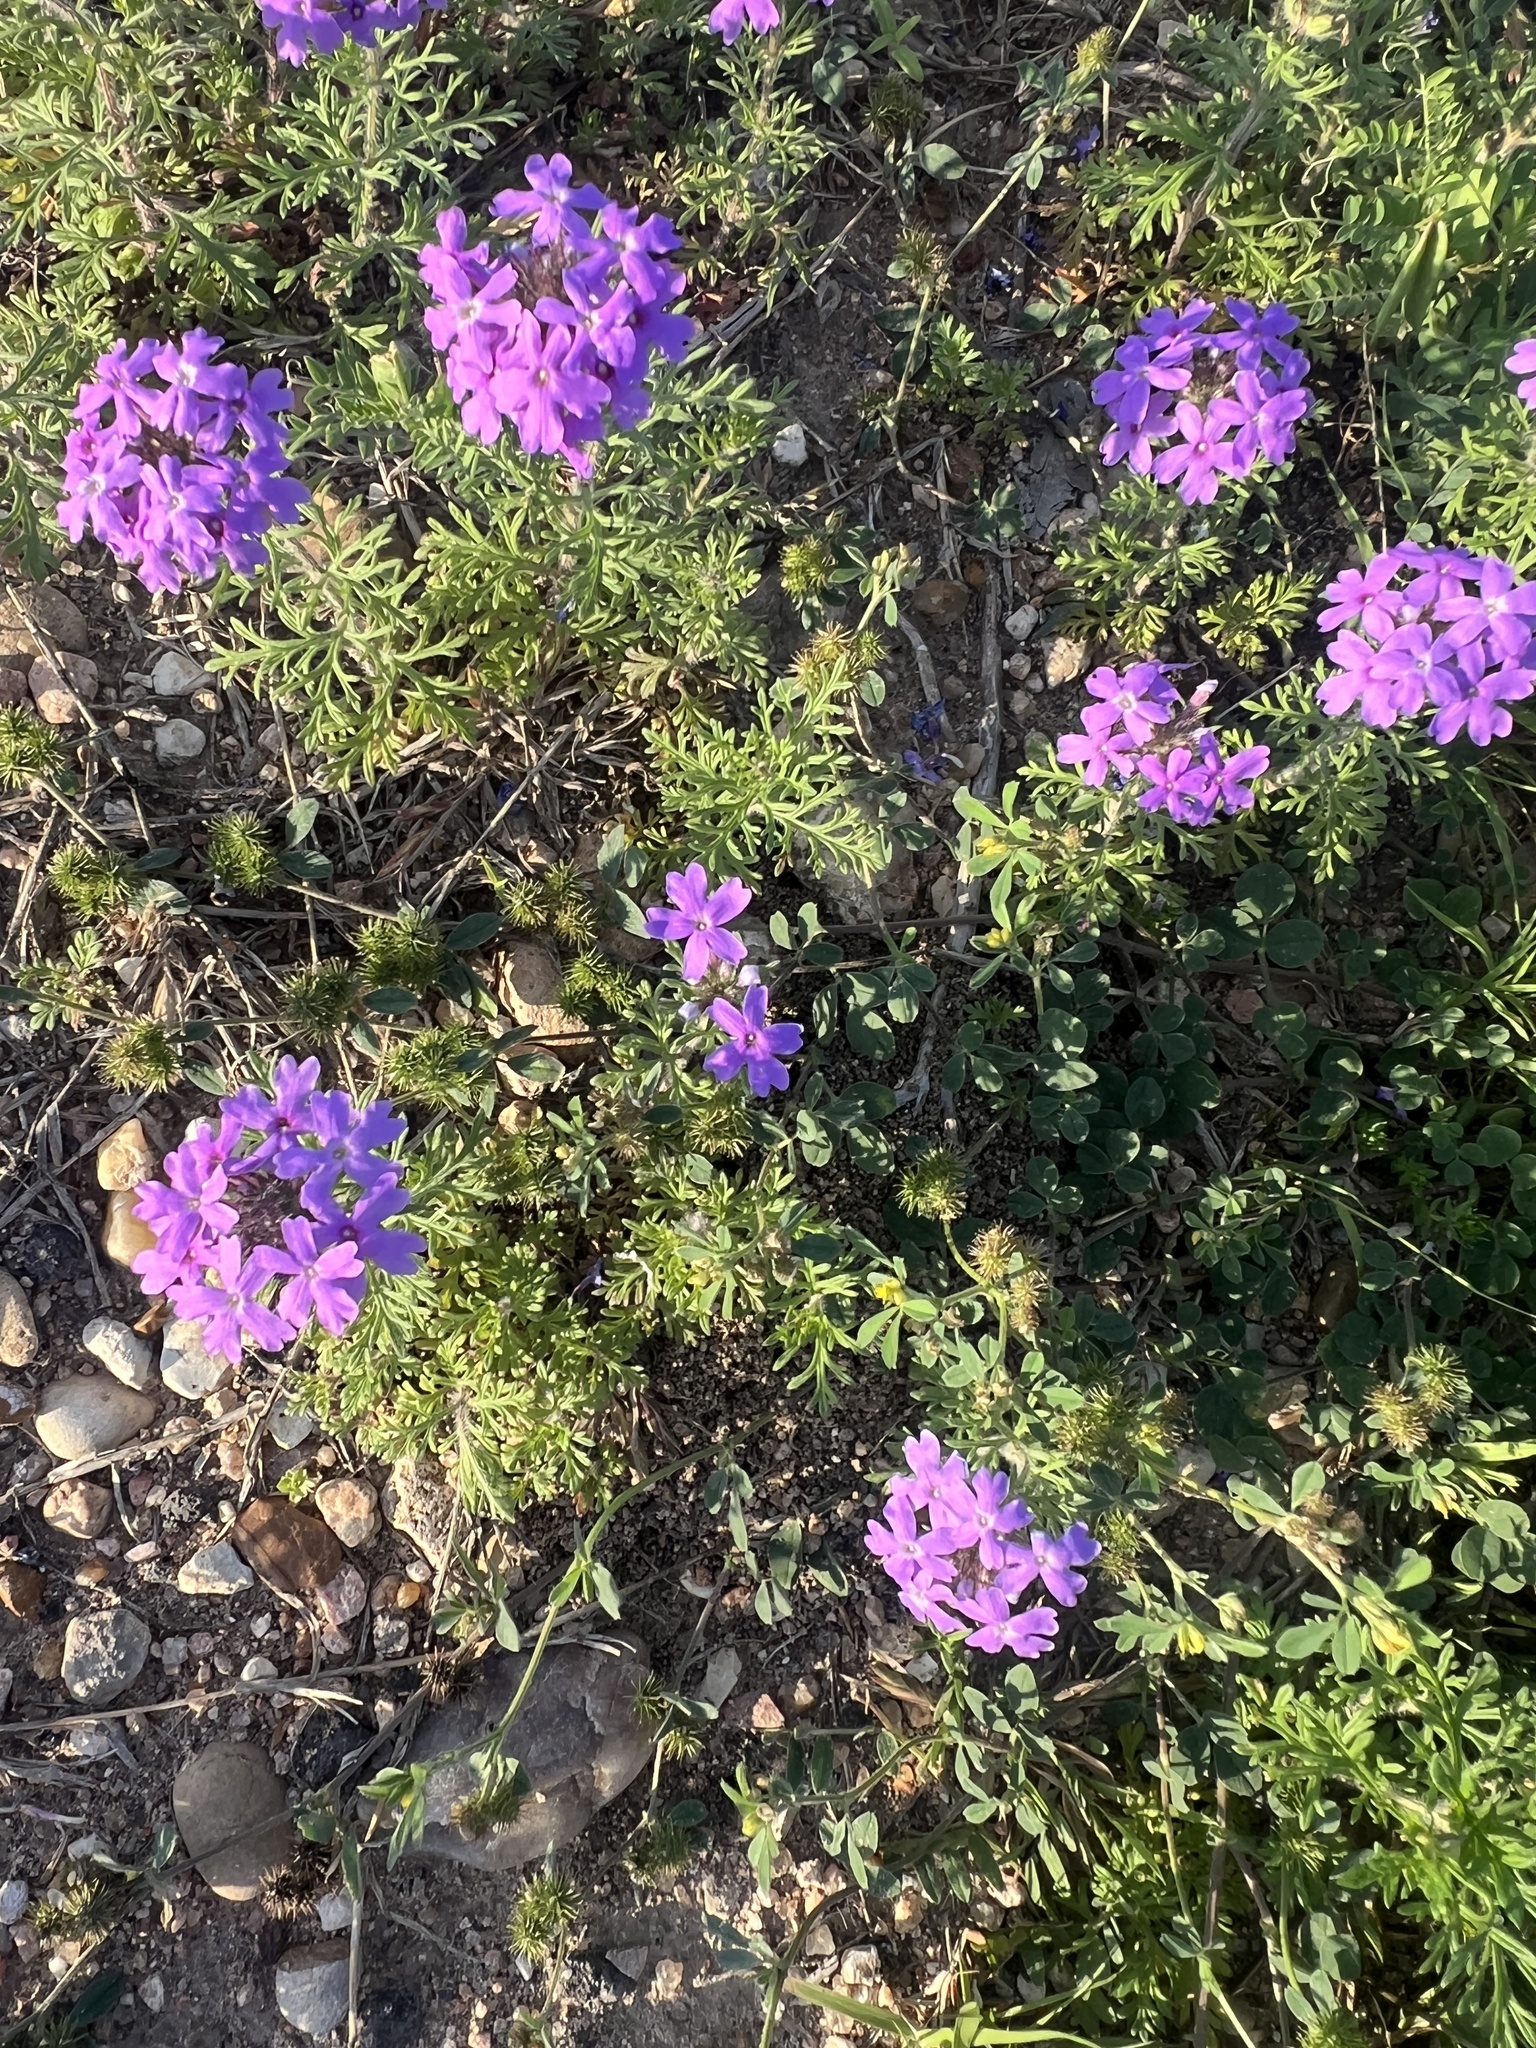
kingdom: Plantae
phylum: Tracheophyta
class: Magnoliopsida
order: Lamiales
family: Verbenaceae
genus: Verbena
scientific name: Verbena bipinnatifida
